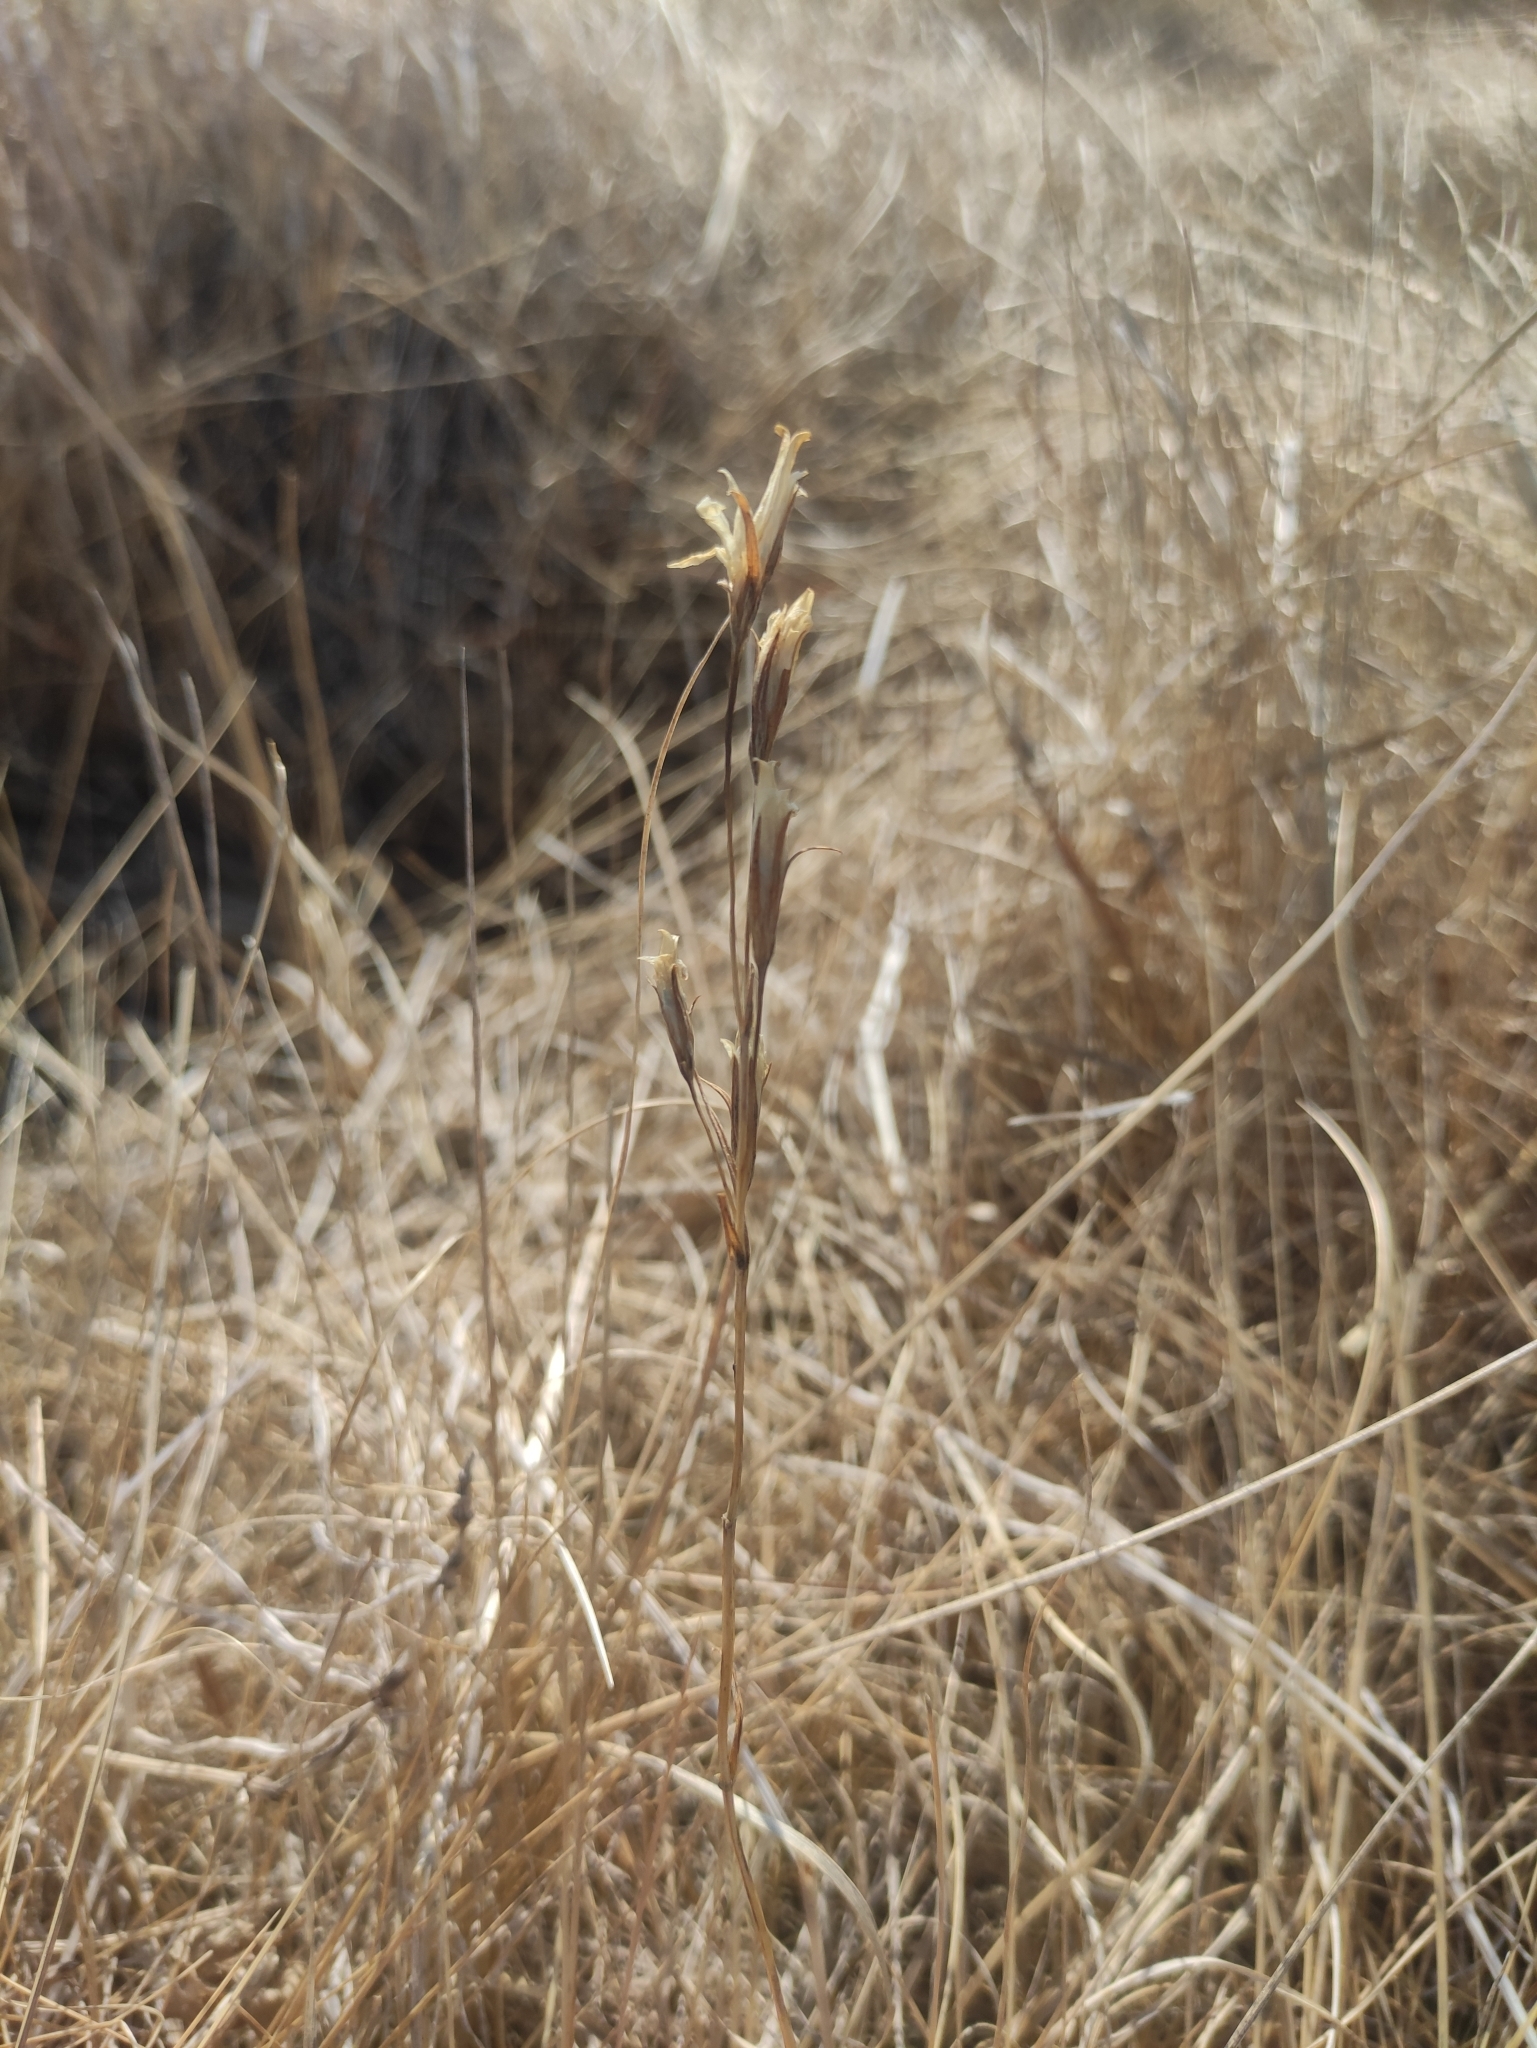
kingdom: Plantae
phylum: Tracheophyta
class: Magnoliopsida
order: Gentianales
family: Gentianaceae
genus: Gentianopsis
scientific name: Gentianopsis barbata
